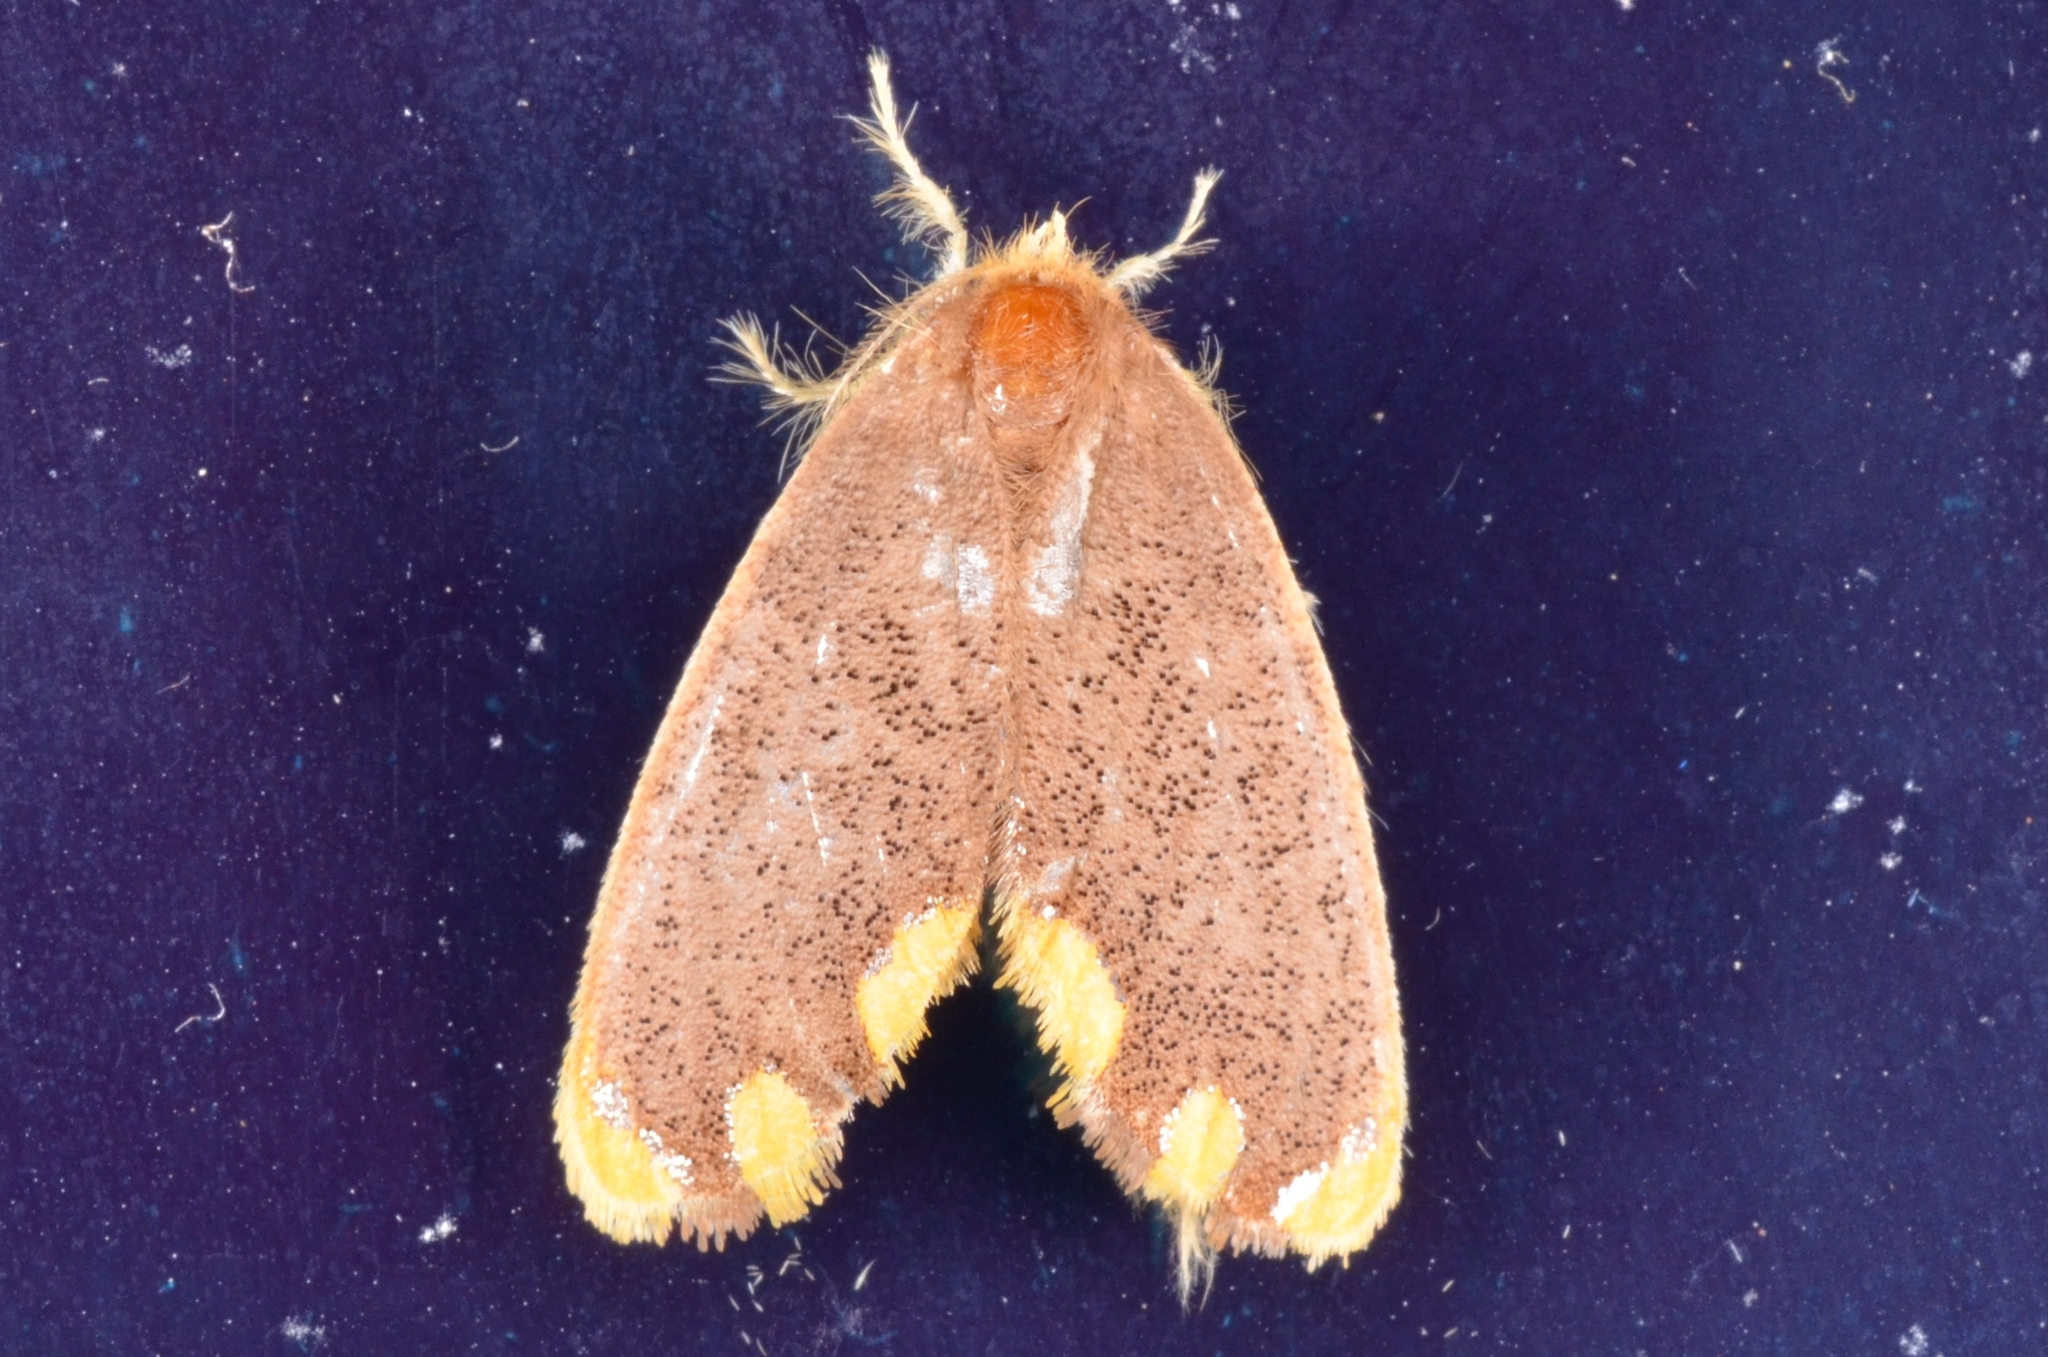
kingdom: Animalia
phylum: Arthropoda
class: Insecta
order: Lepidoptera
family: Erebidae
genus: Orvasca
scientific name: Orvasca subnotata
